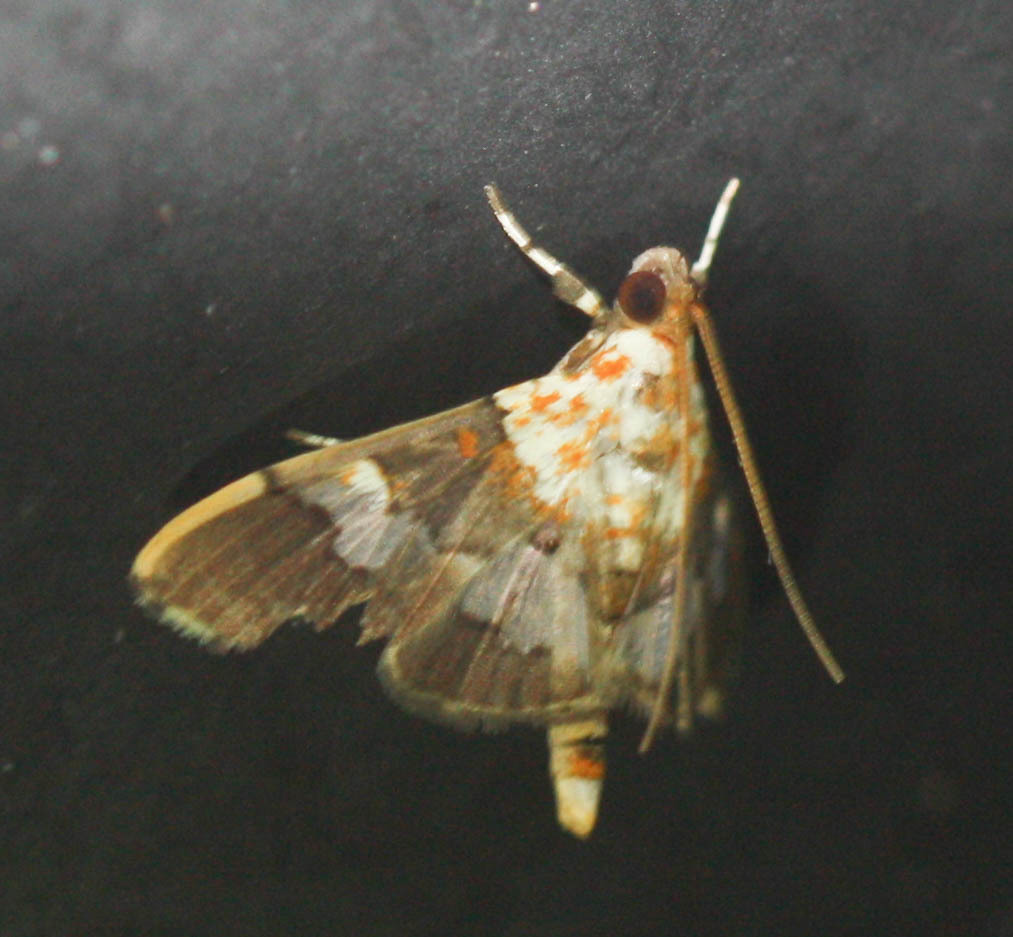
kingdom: Animalia
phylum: Arthropoda
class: Insecta
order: Lepidoptera
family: Crambidae
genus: Aetholix
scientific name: Aetholix flavibasalis
